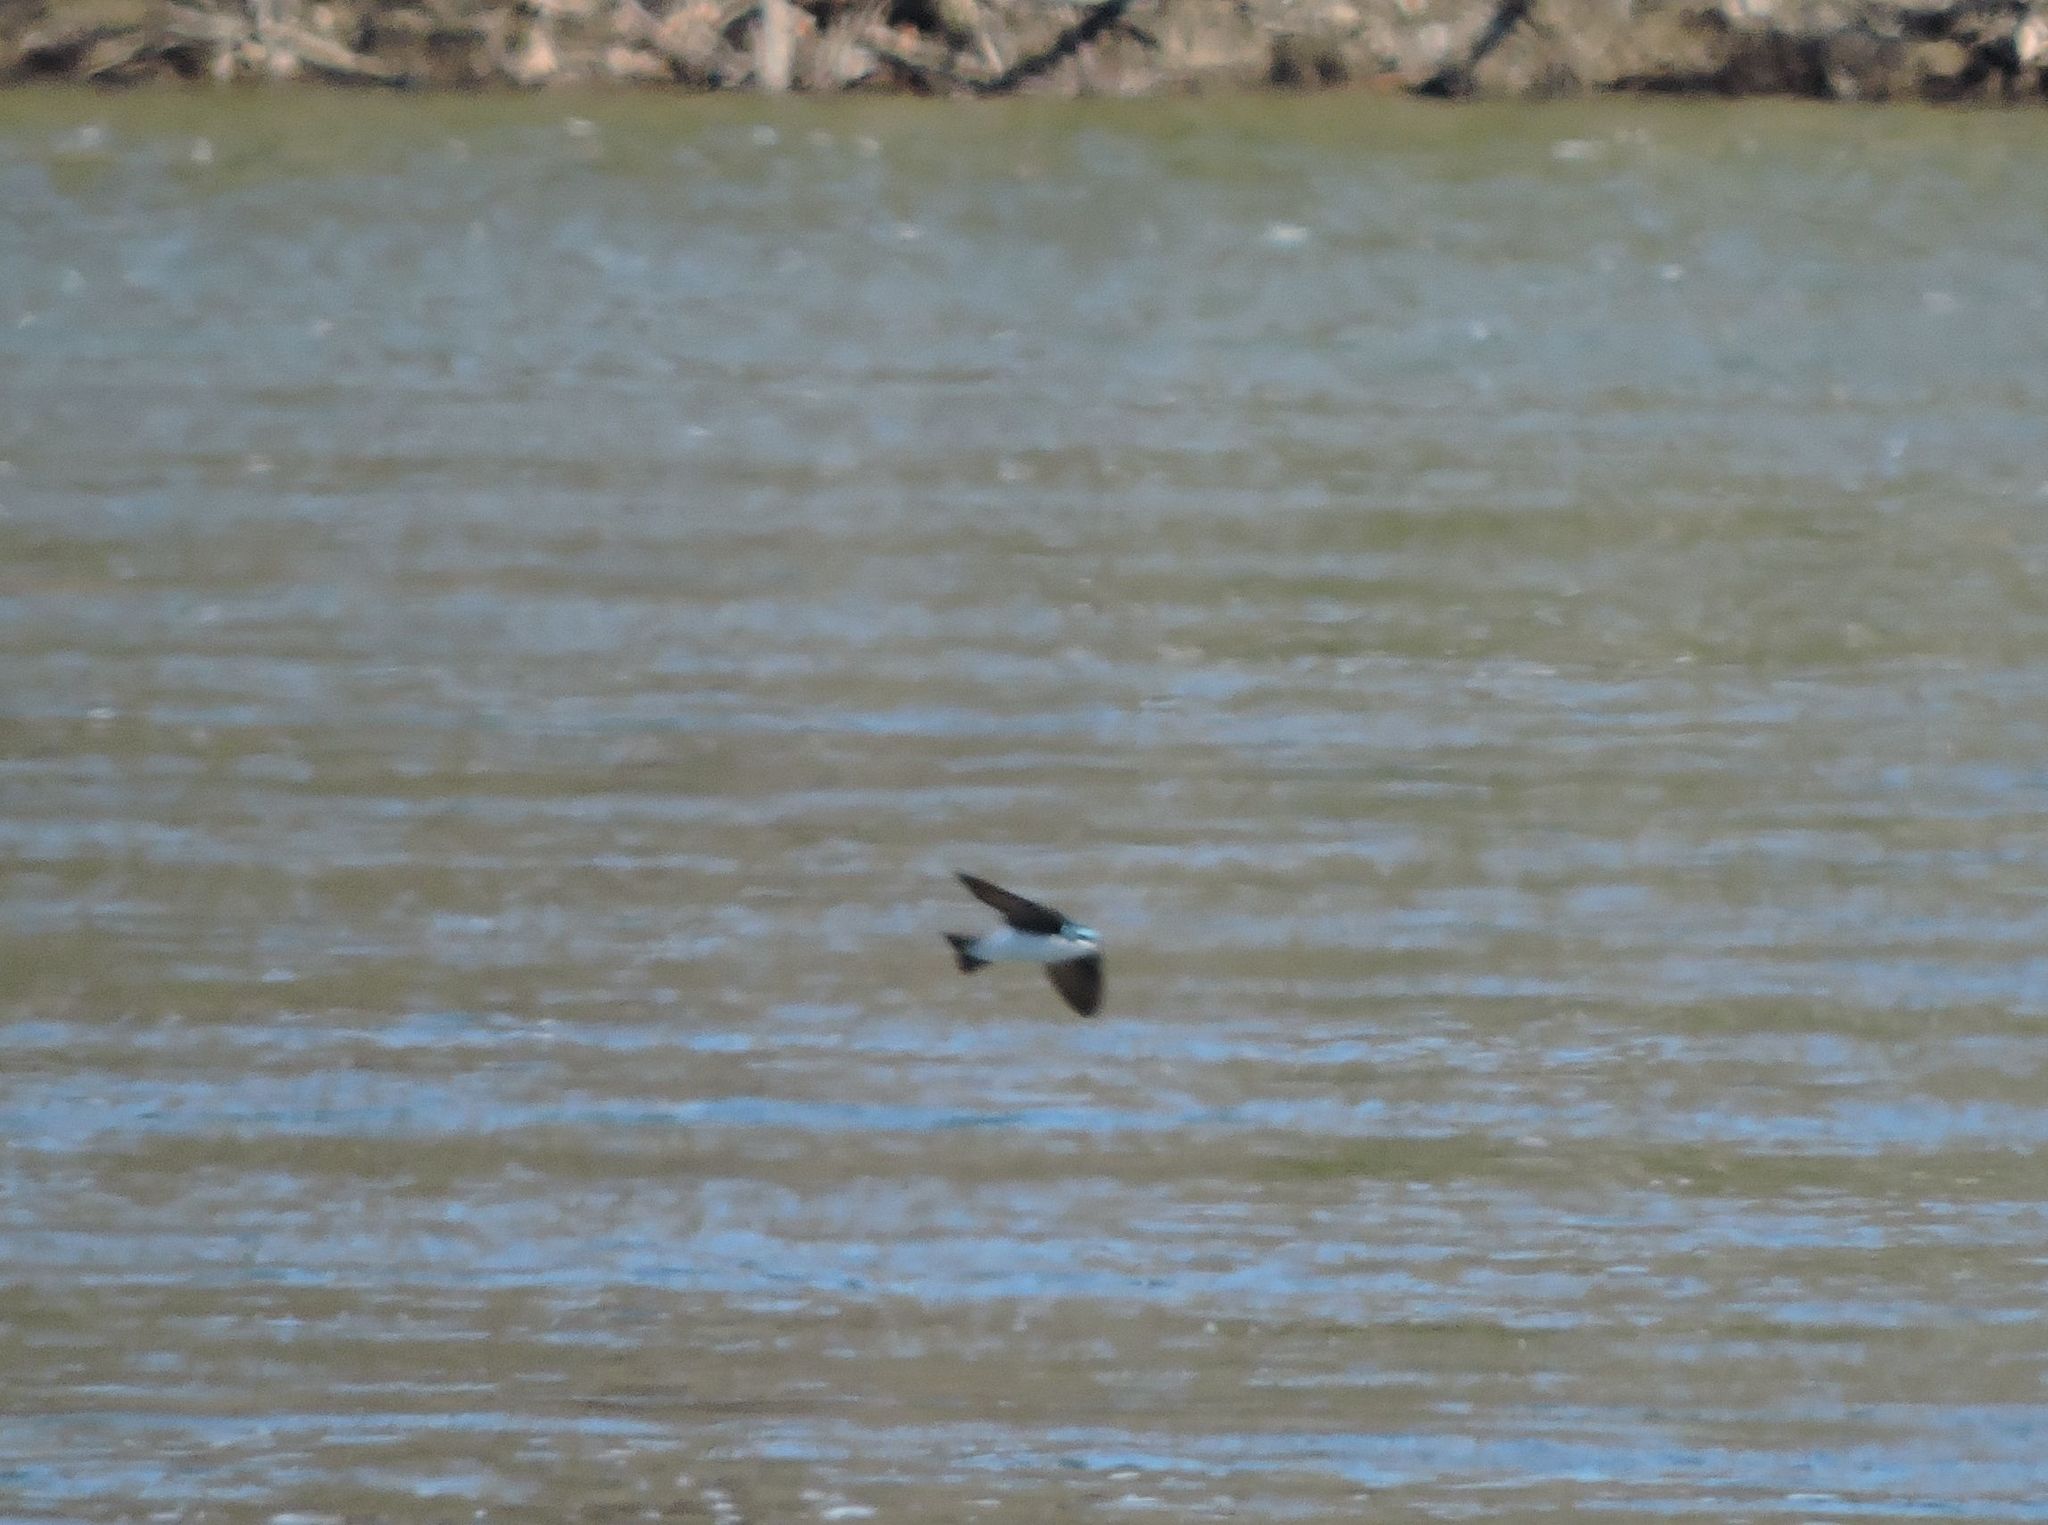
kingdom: Animalia
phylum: Chordata
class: Aves
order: Passeriformes
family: Hirundinidae
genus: Tachycineta
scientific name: Tachycineta bicolor
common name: Tree swallow
